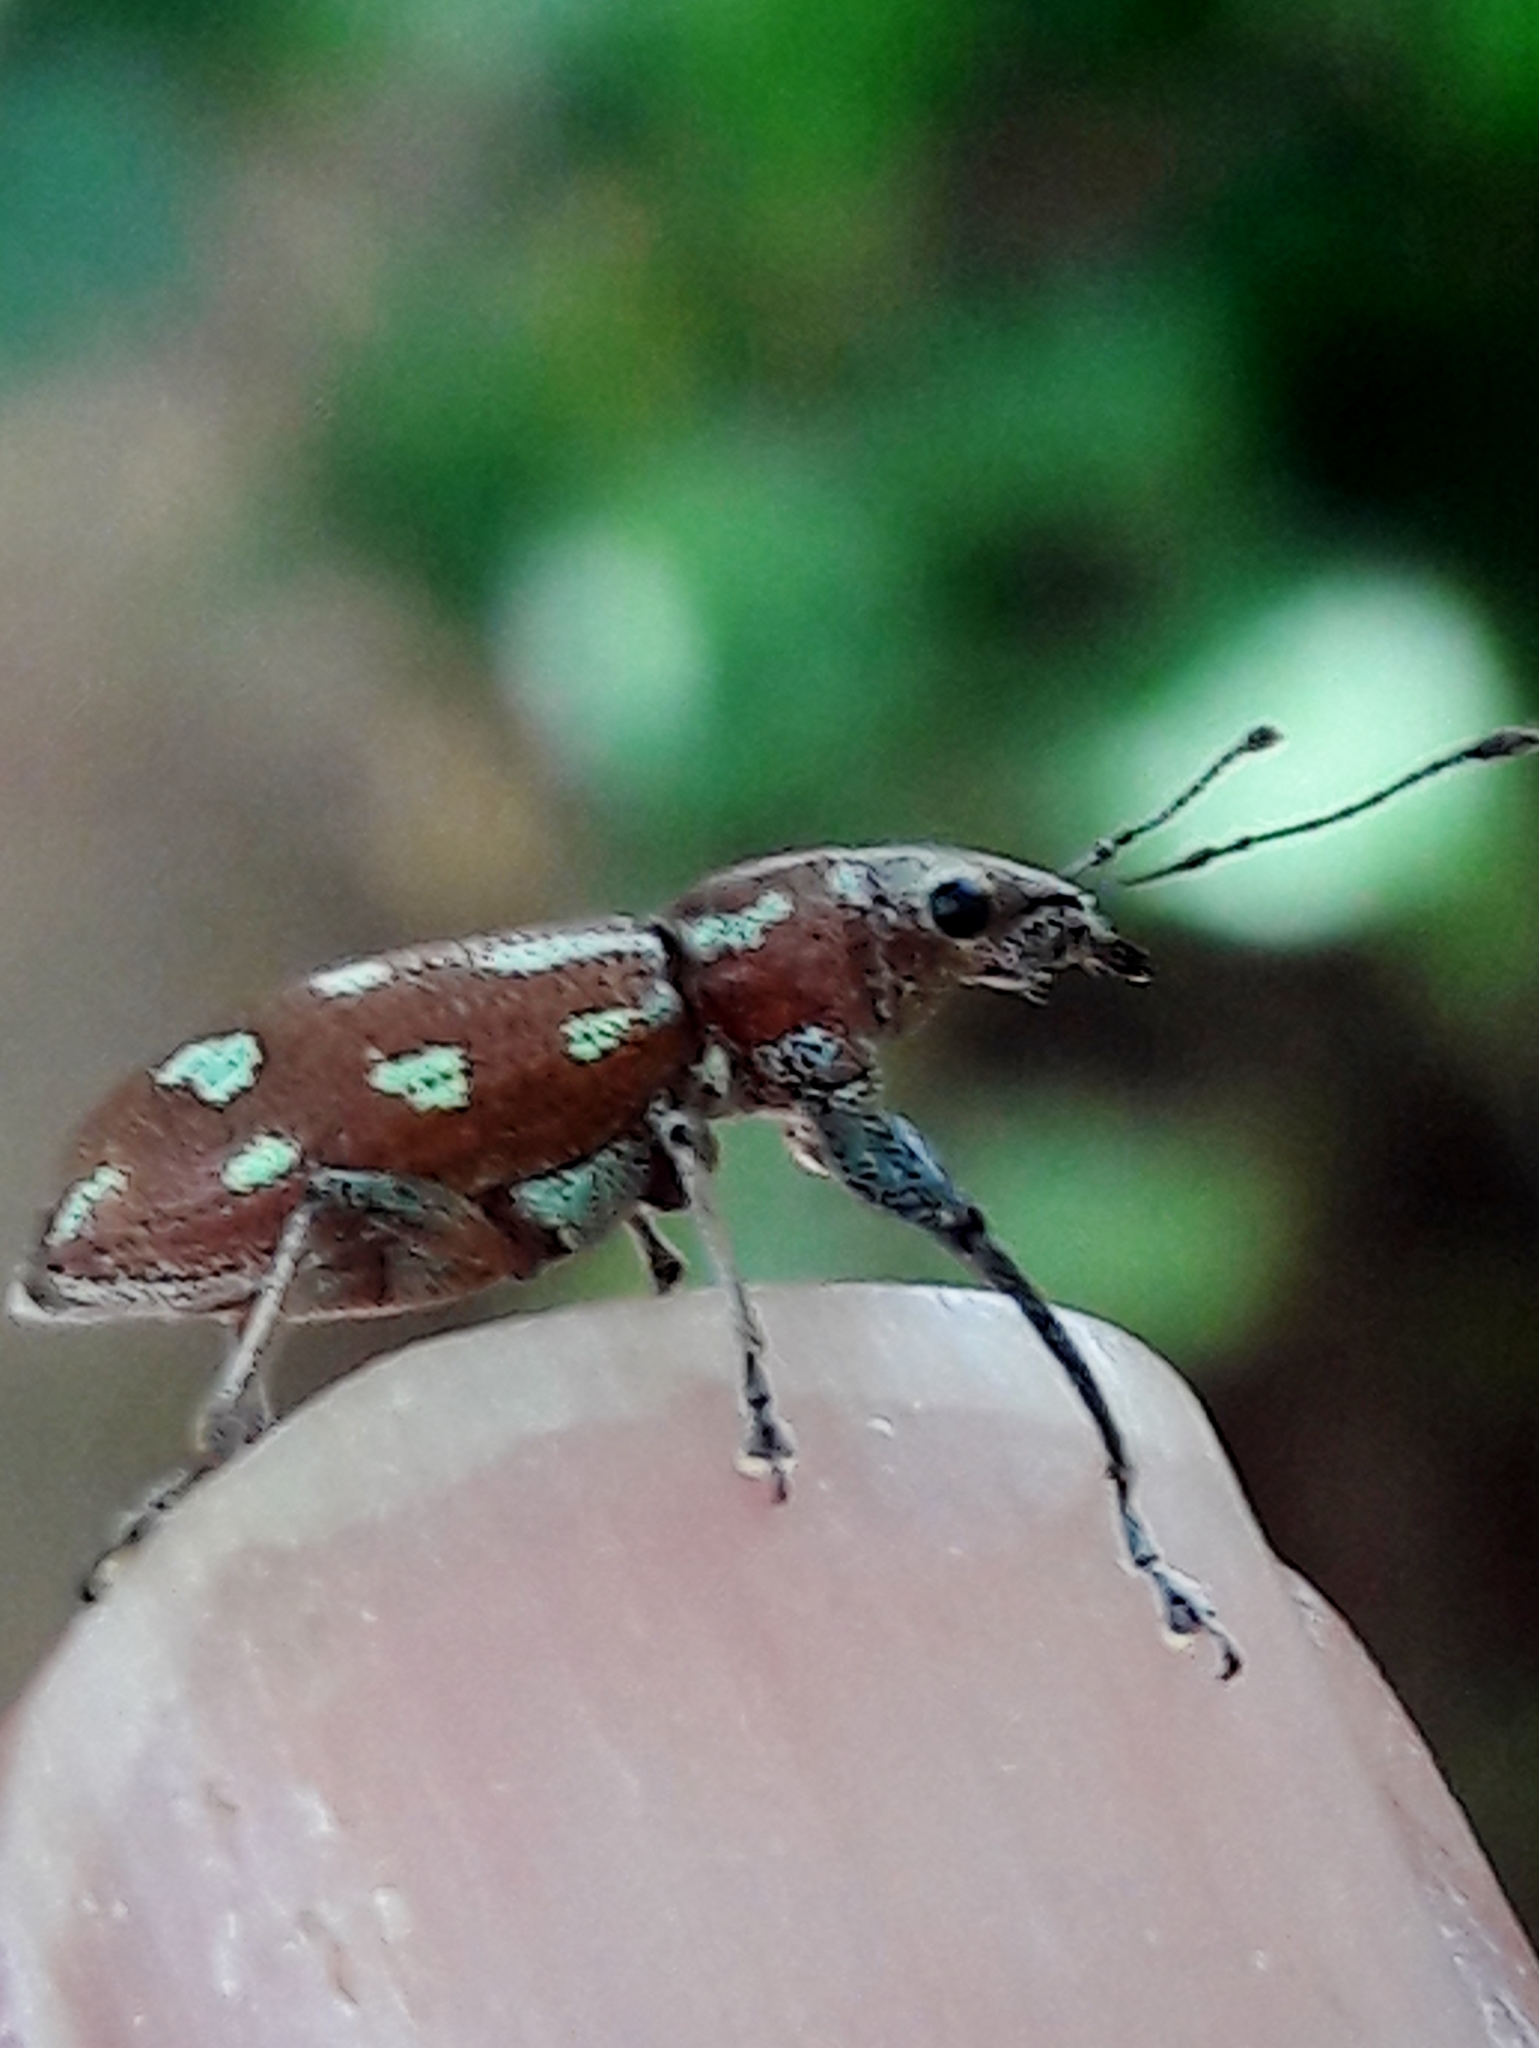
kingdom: Animalia
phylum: Arthropoda
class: Insecta
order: Coleoptera
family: Curculionidae
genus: Naupactus
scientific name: Naupactus bellus
